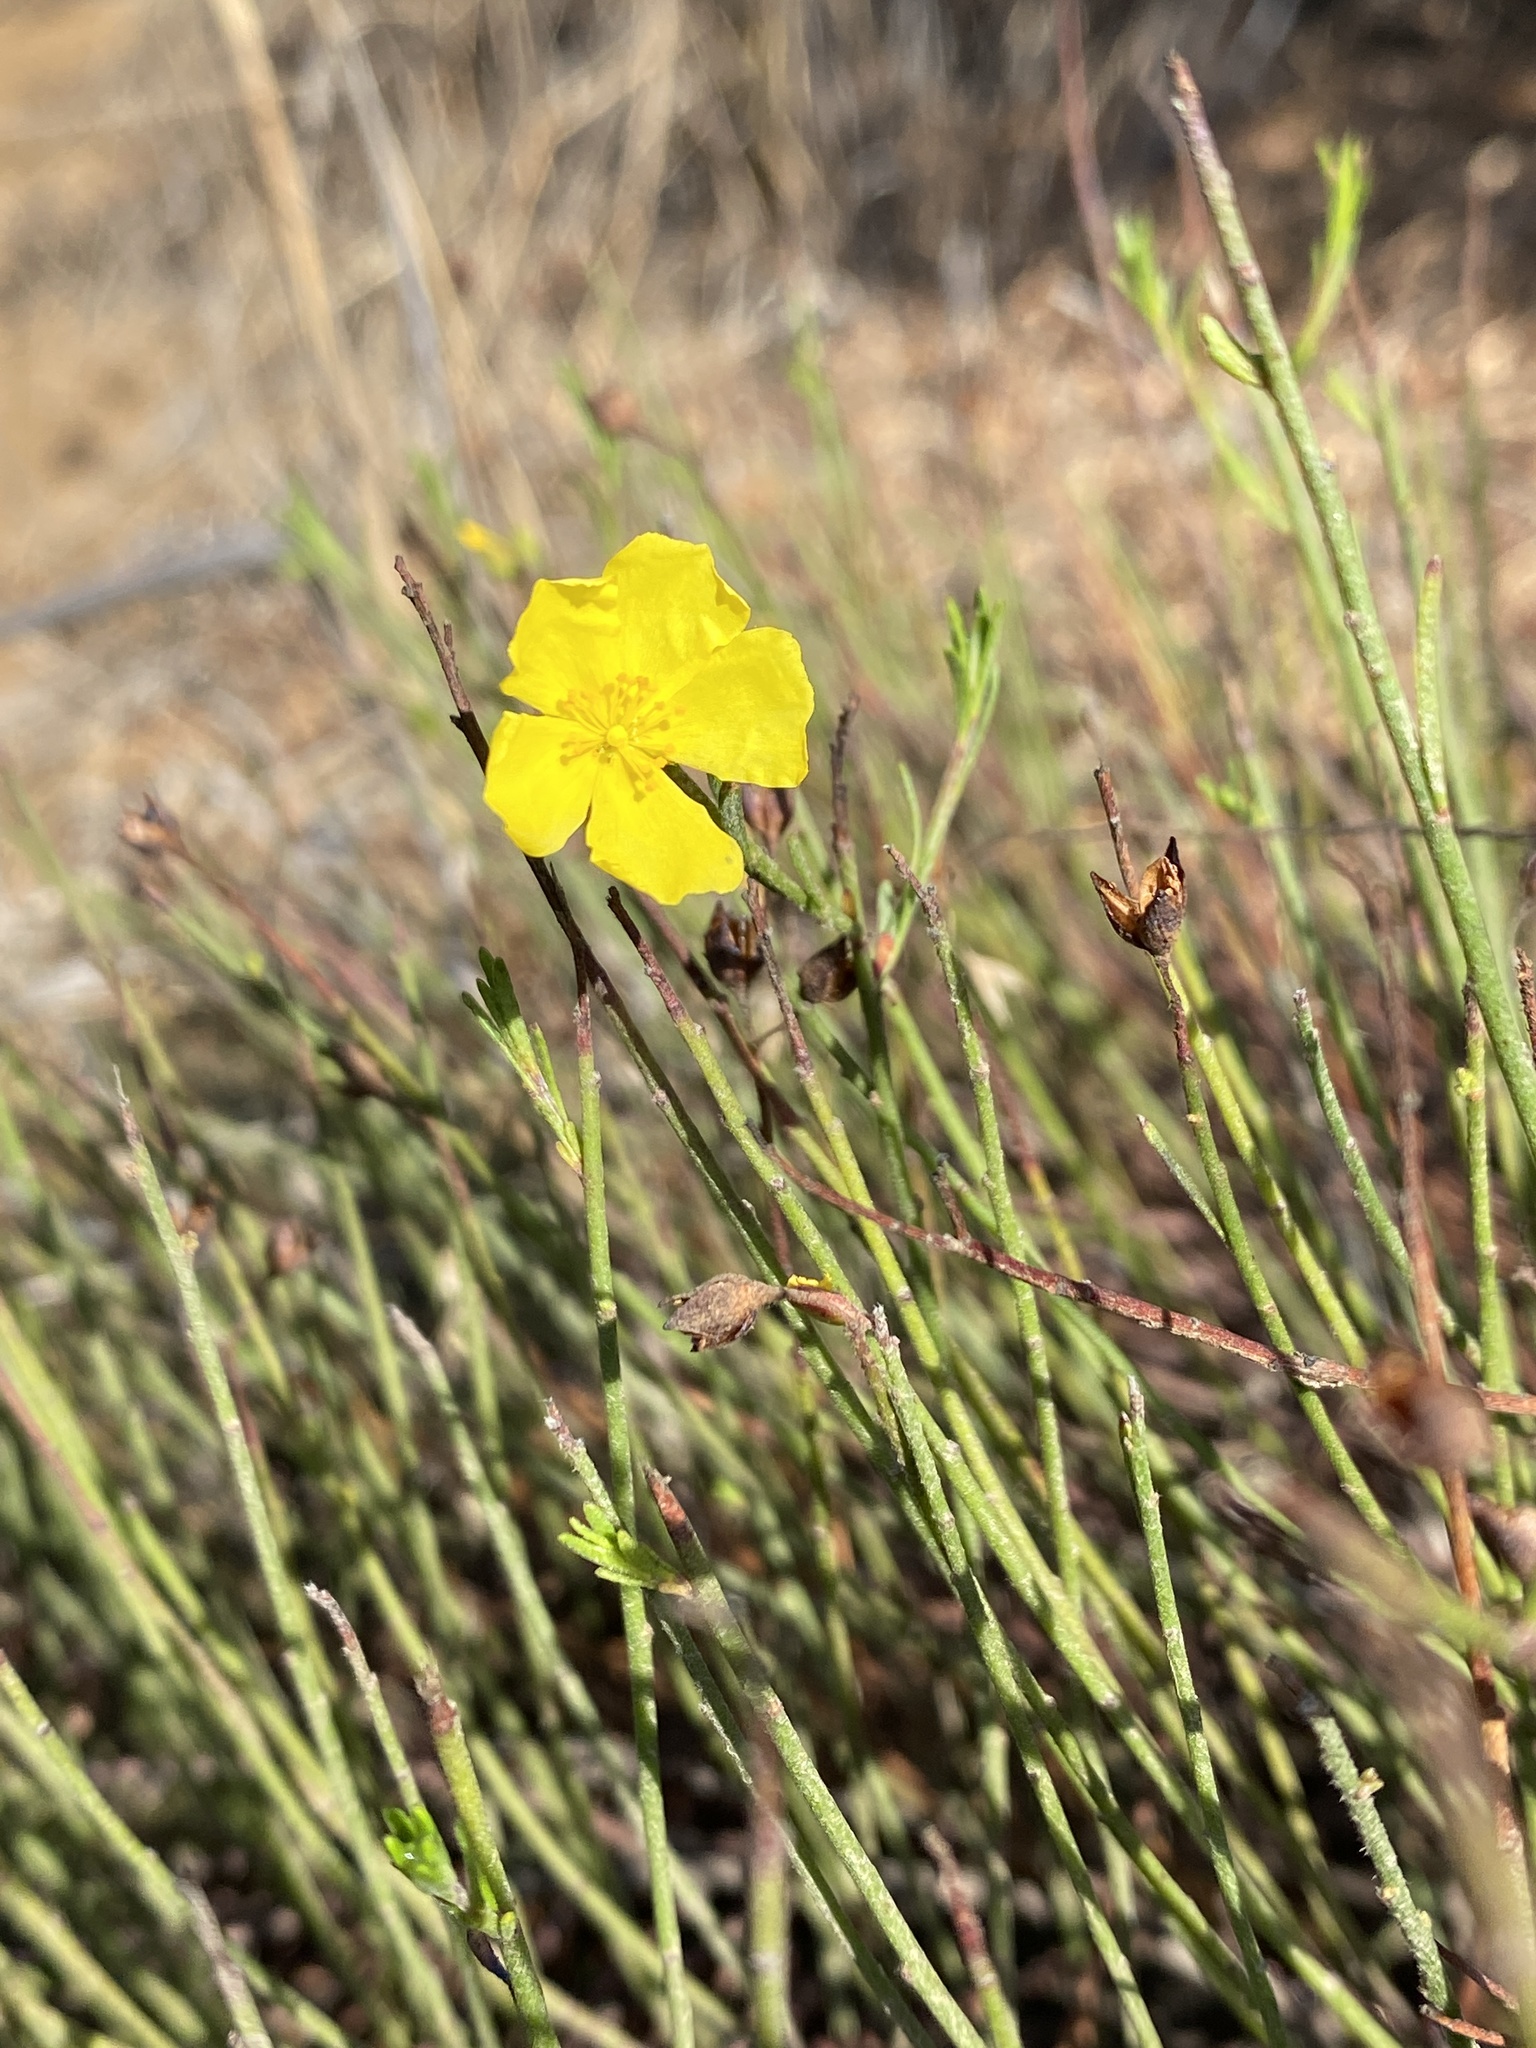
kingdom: Plantae
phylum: Tracheophyta
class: Magnoliopsida
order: Malvales
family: Cistaceae
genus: Crocanthemum
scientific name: Crocanthemum scoparium
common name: Broom-rose
